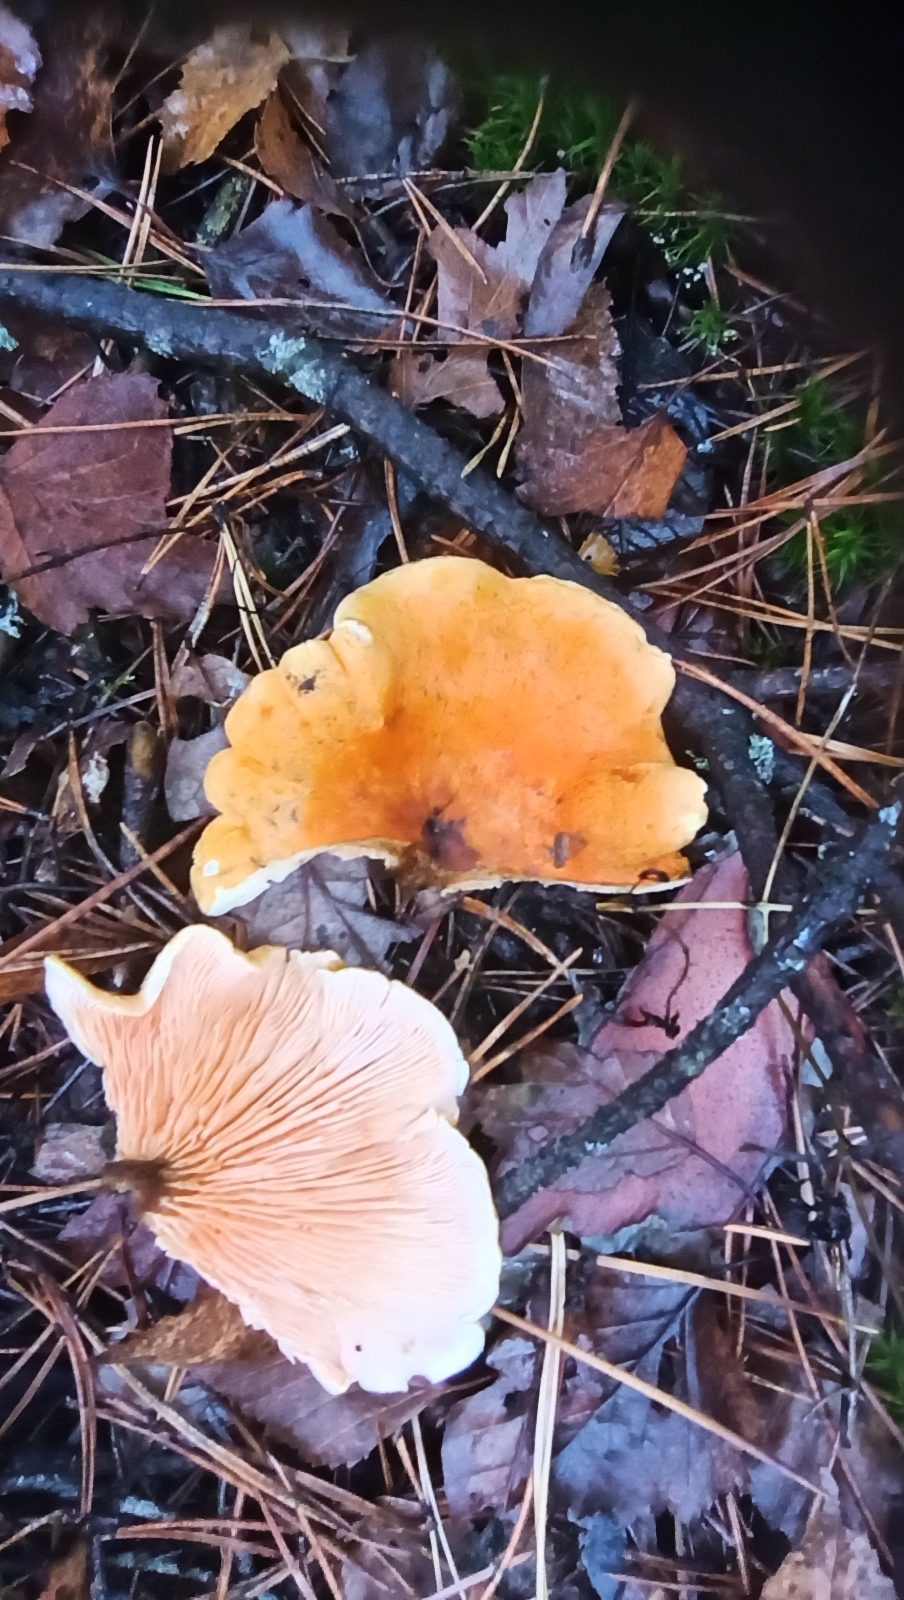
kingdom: Fungi
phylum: Basidiomycota
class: Agaricomycetes
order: Boletales
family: Hygrophoropsidaceae
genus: Hygrophoropsis
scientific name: Hygrophoropsis aurantiaca
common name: False chanterelle
